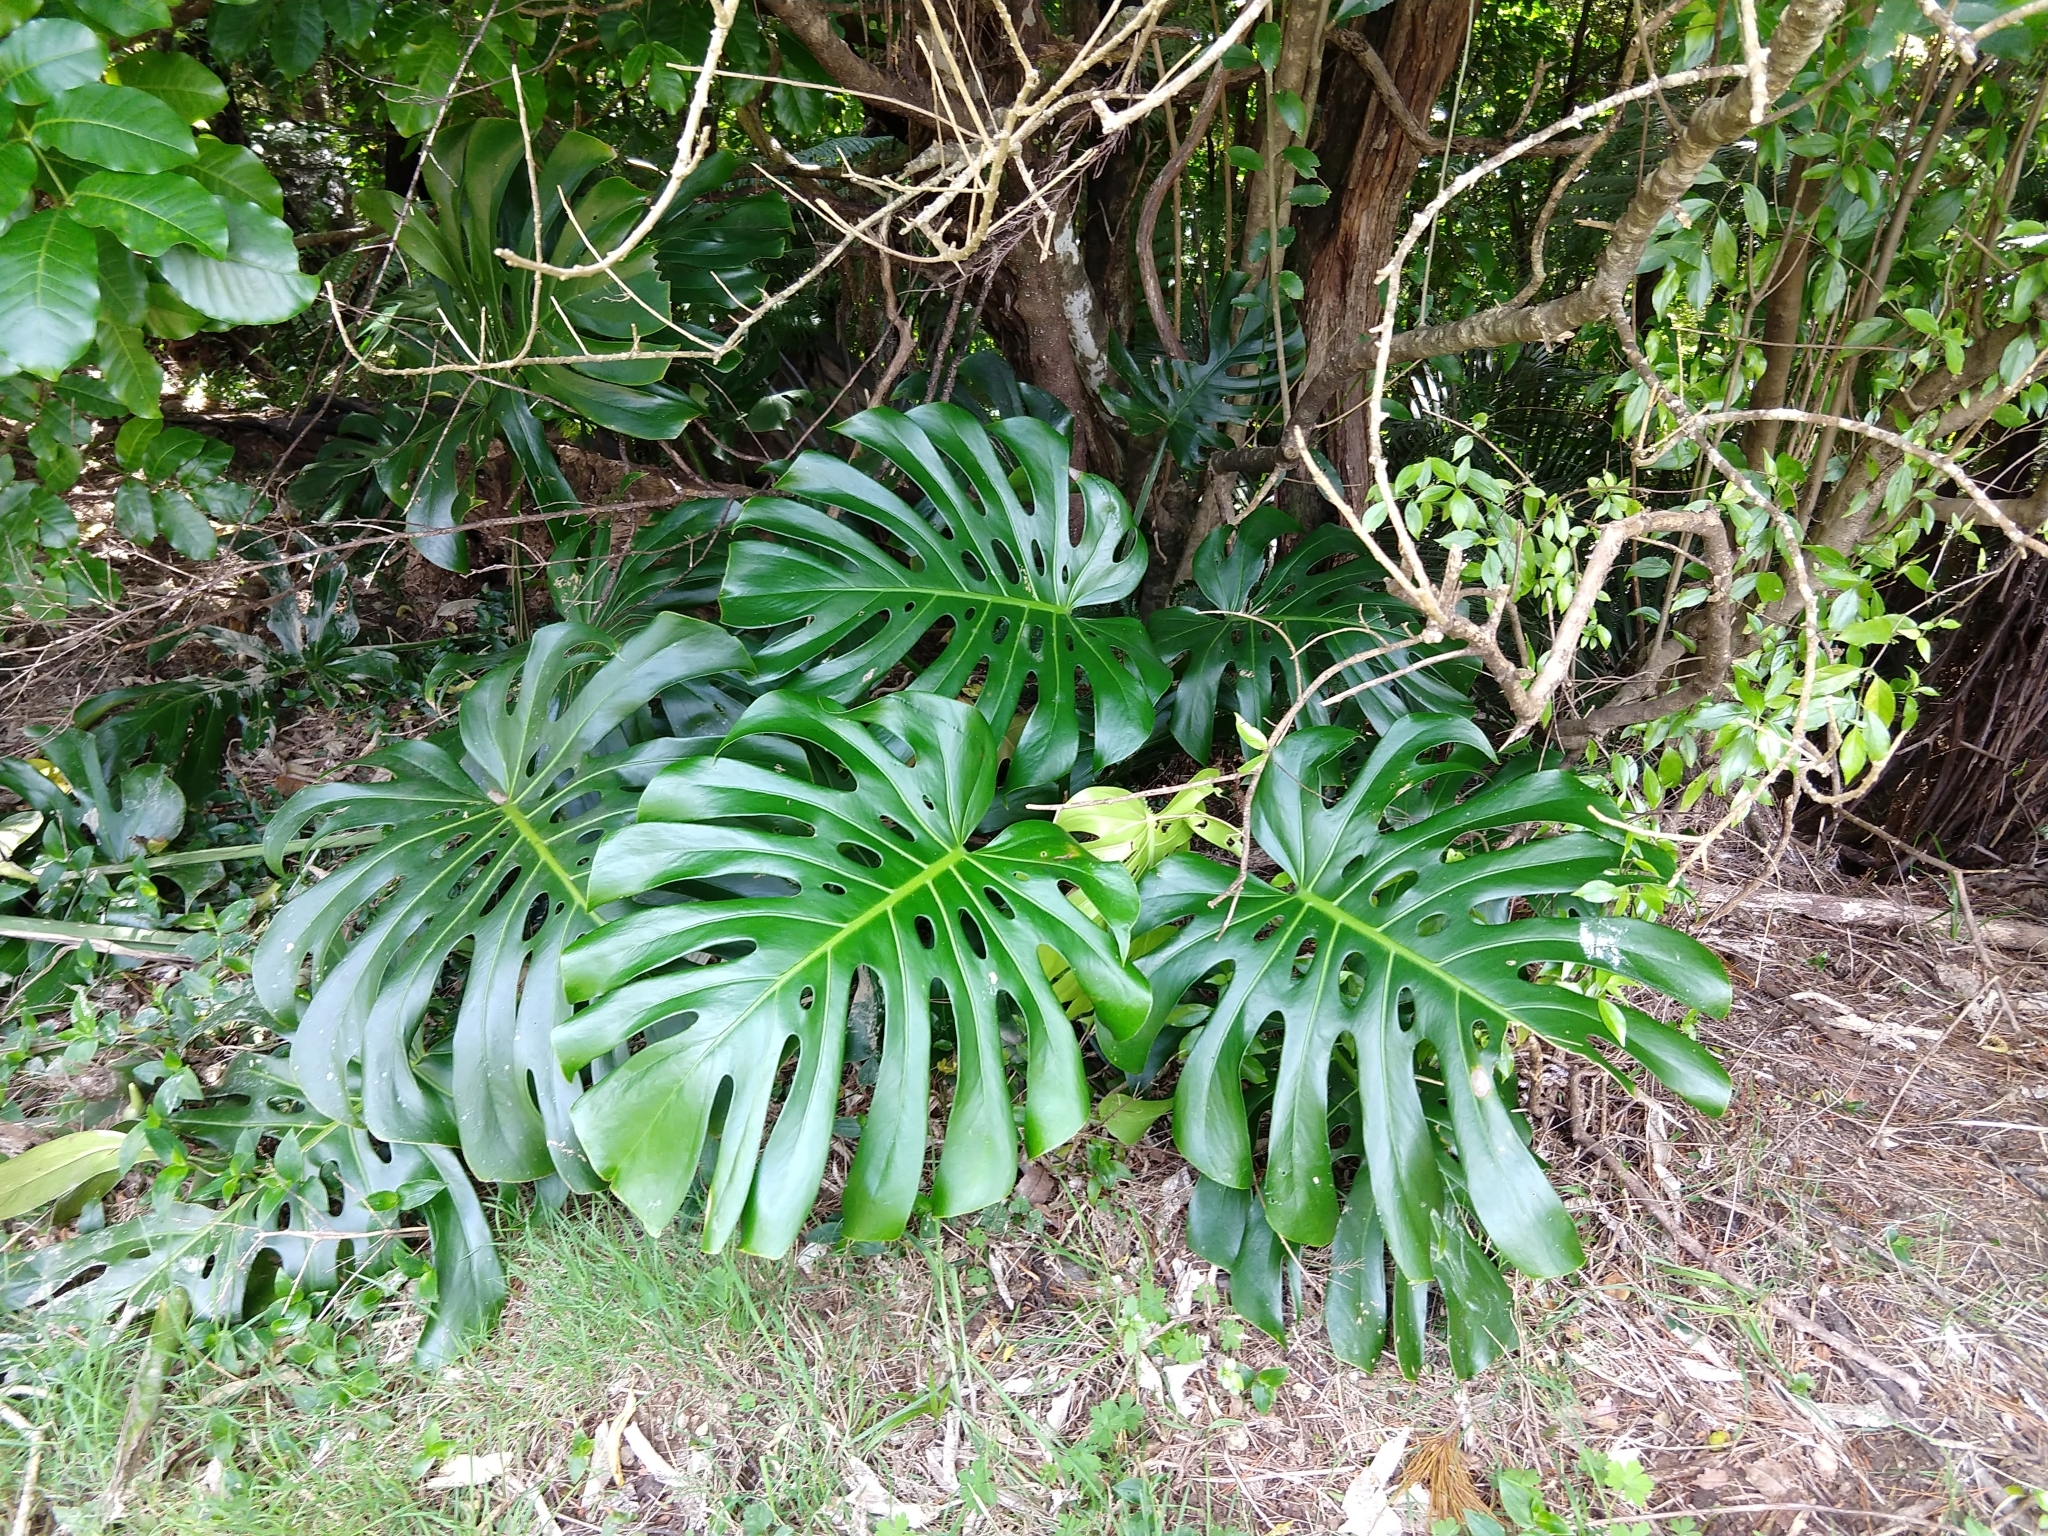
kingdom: Plantae
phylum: Tracheophyta
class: Liliopsida
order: Alismatales
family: Araceae
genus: Monstera
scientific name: Monstera deliciosa
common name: Cut-leaf-philodendron
